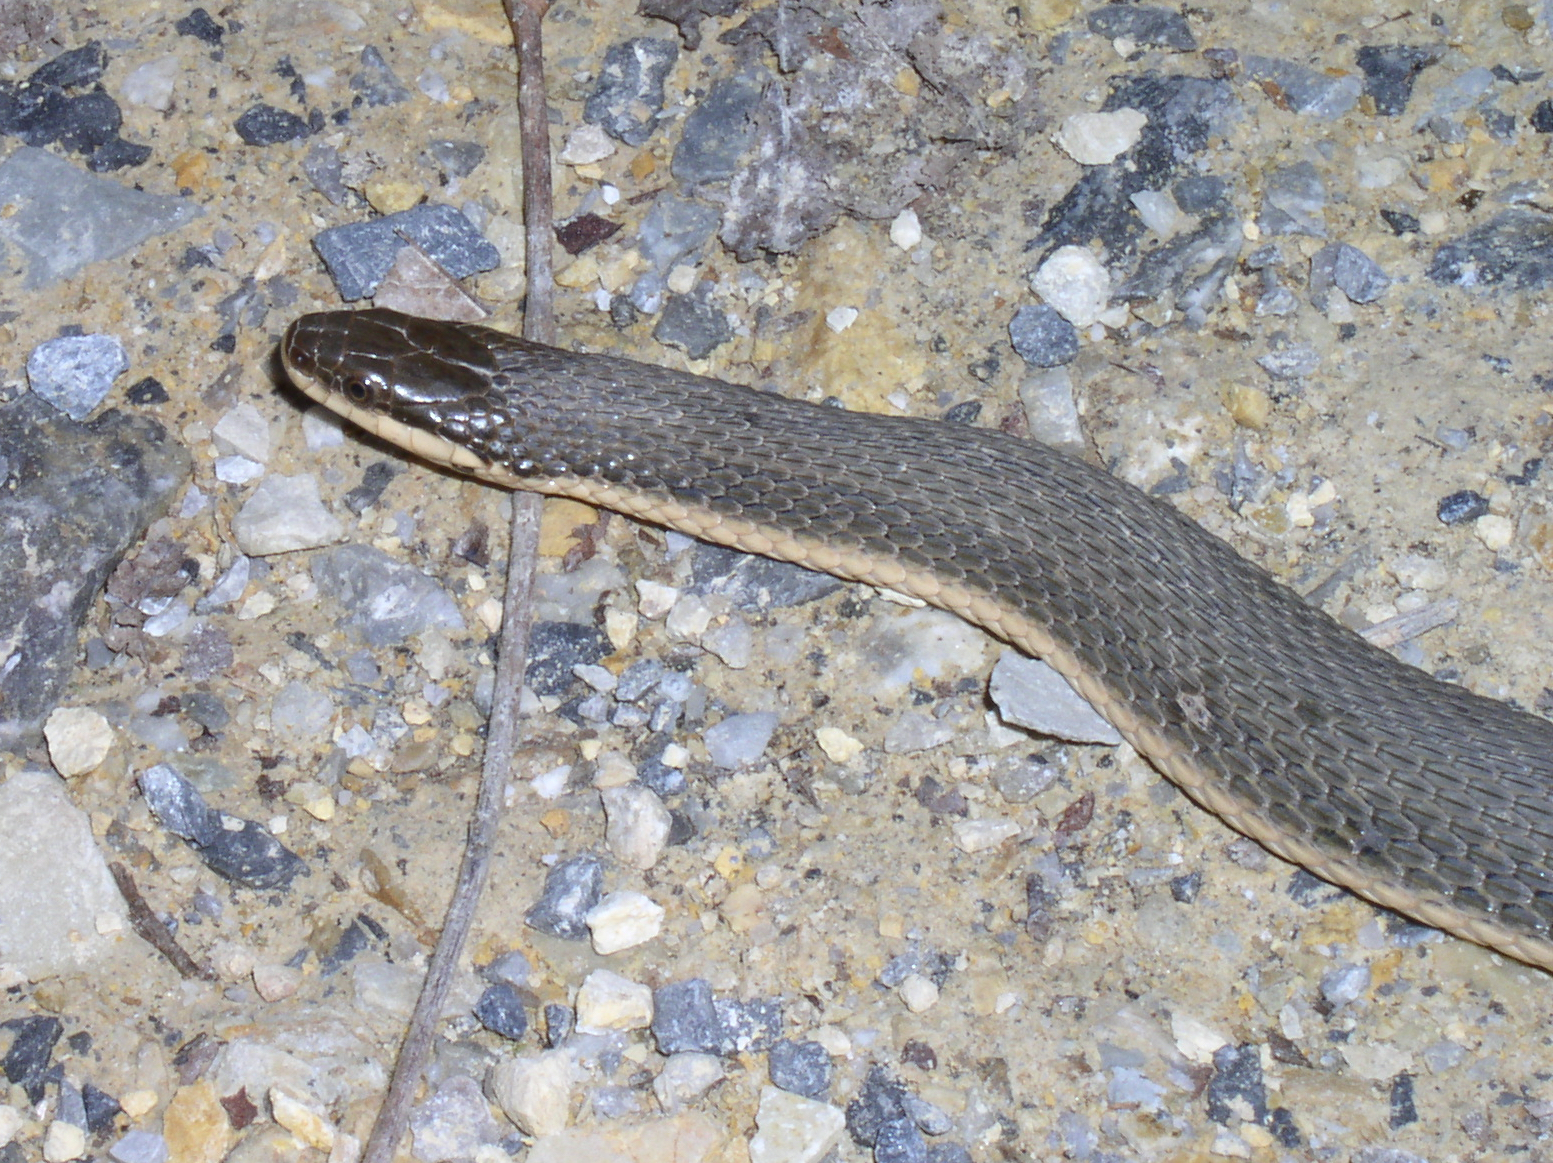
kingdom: Animalia
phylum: Chordata
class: Squamata
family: Colubridae
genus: Regina
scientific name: Regina septemvittata
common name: Queen snake
